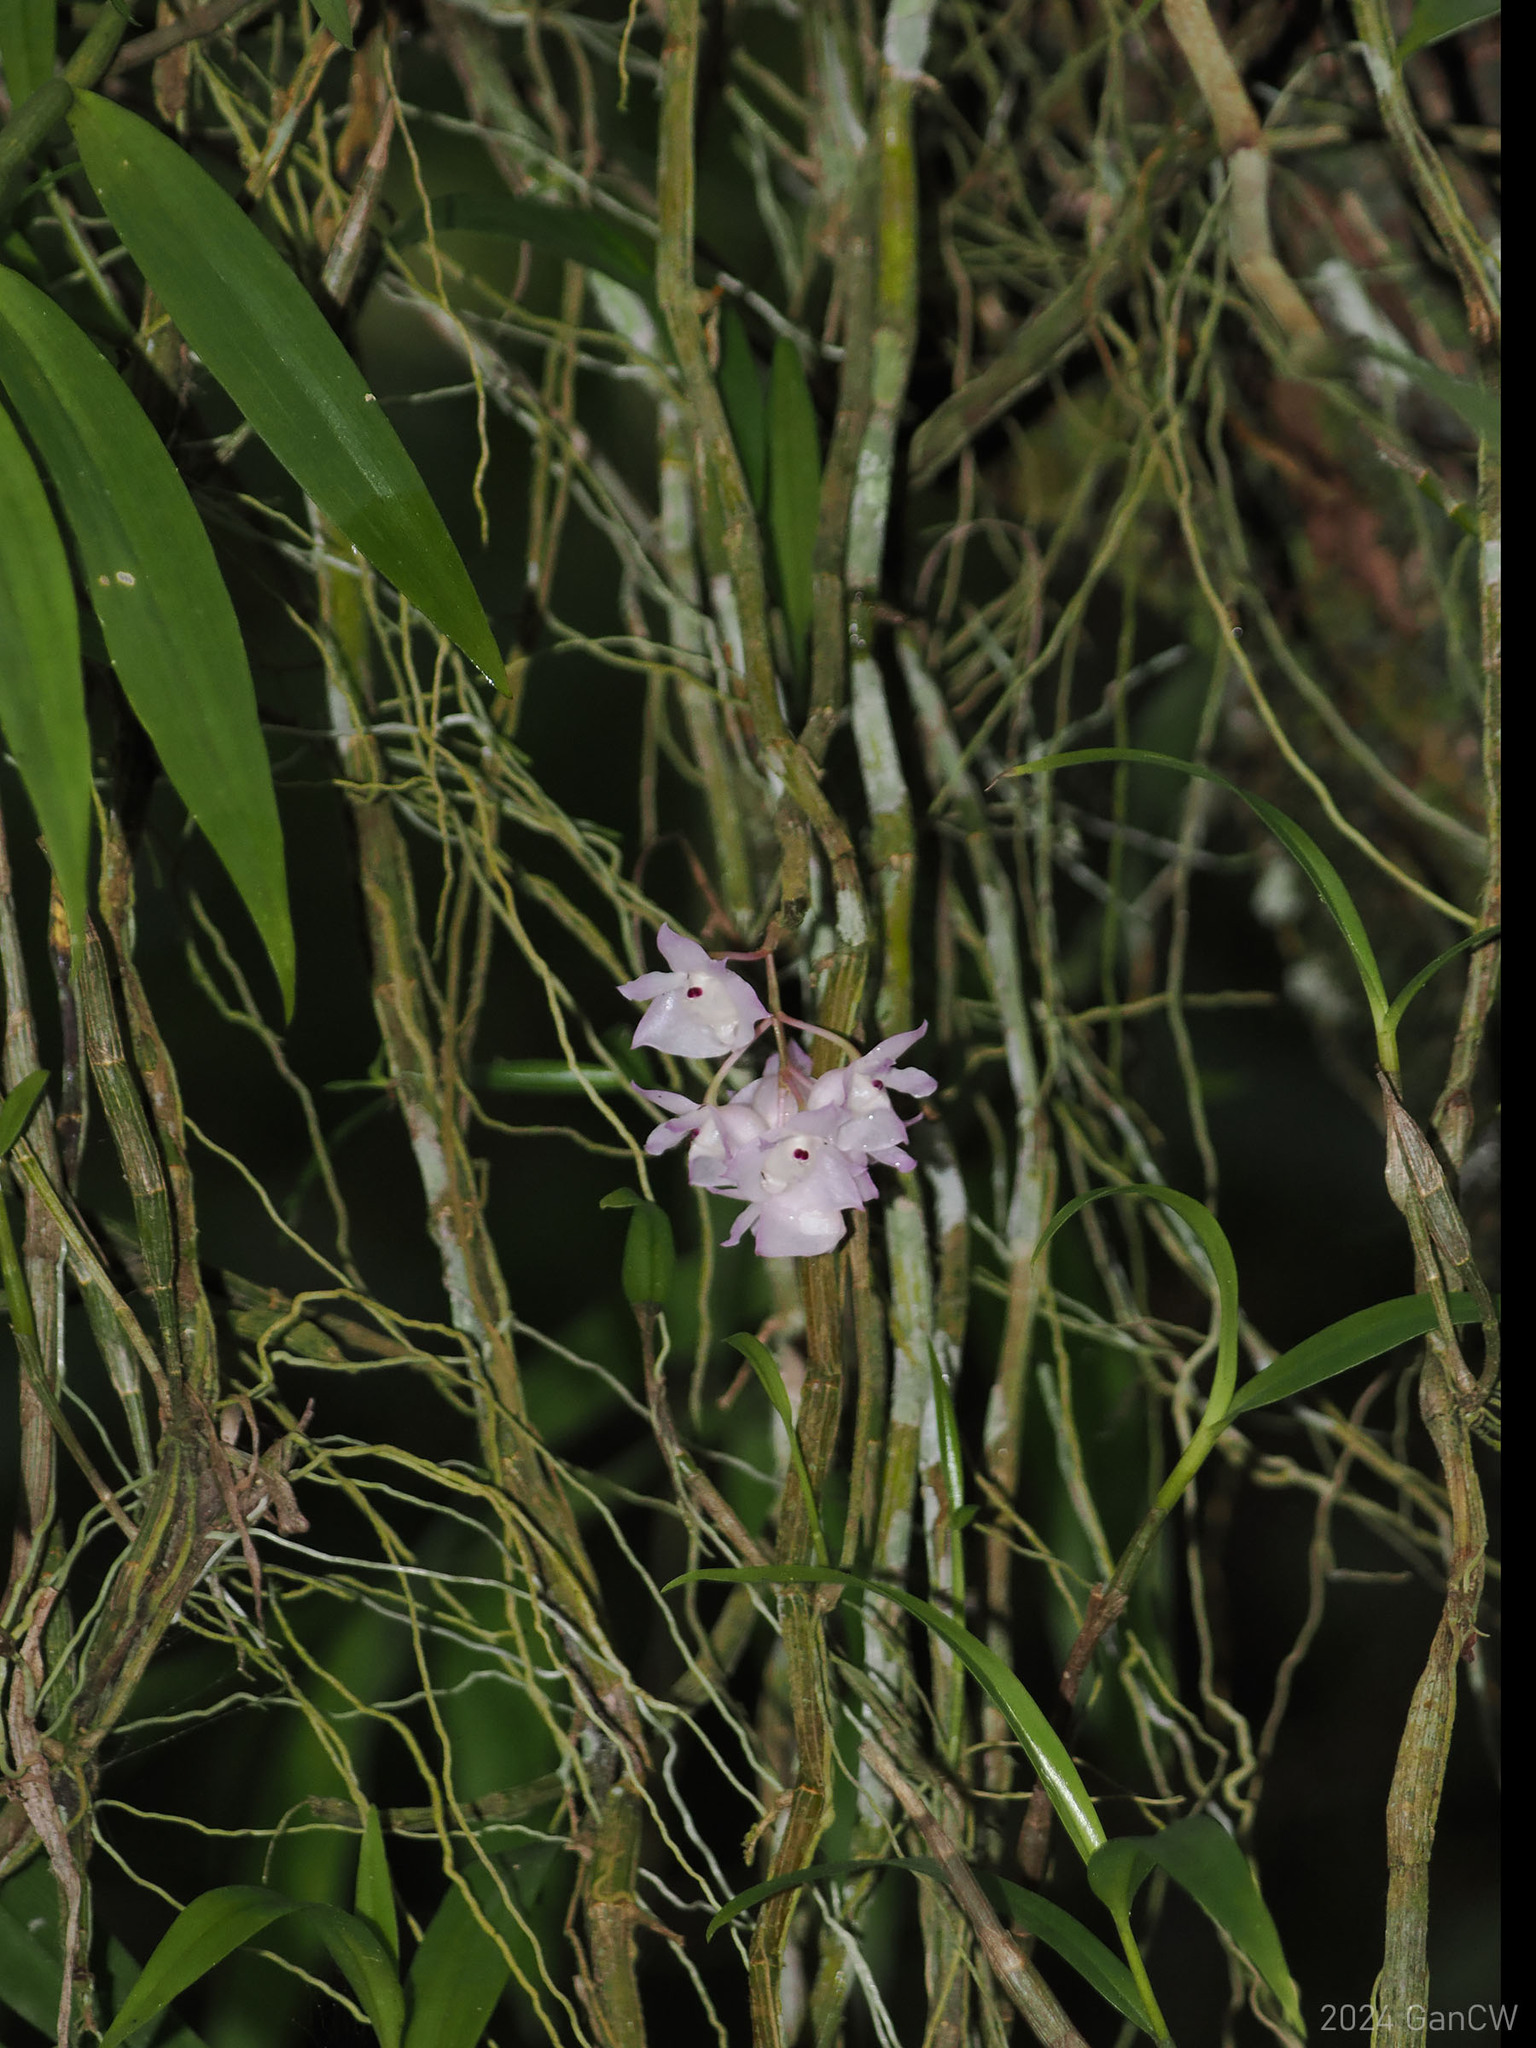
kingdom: Plantae
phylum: Tracheophyta
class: Liliopsida
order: Asparagales
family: Orchidaceae
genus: Dendrobium
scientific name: Dendrobium linguella
